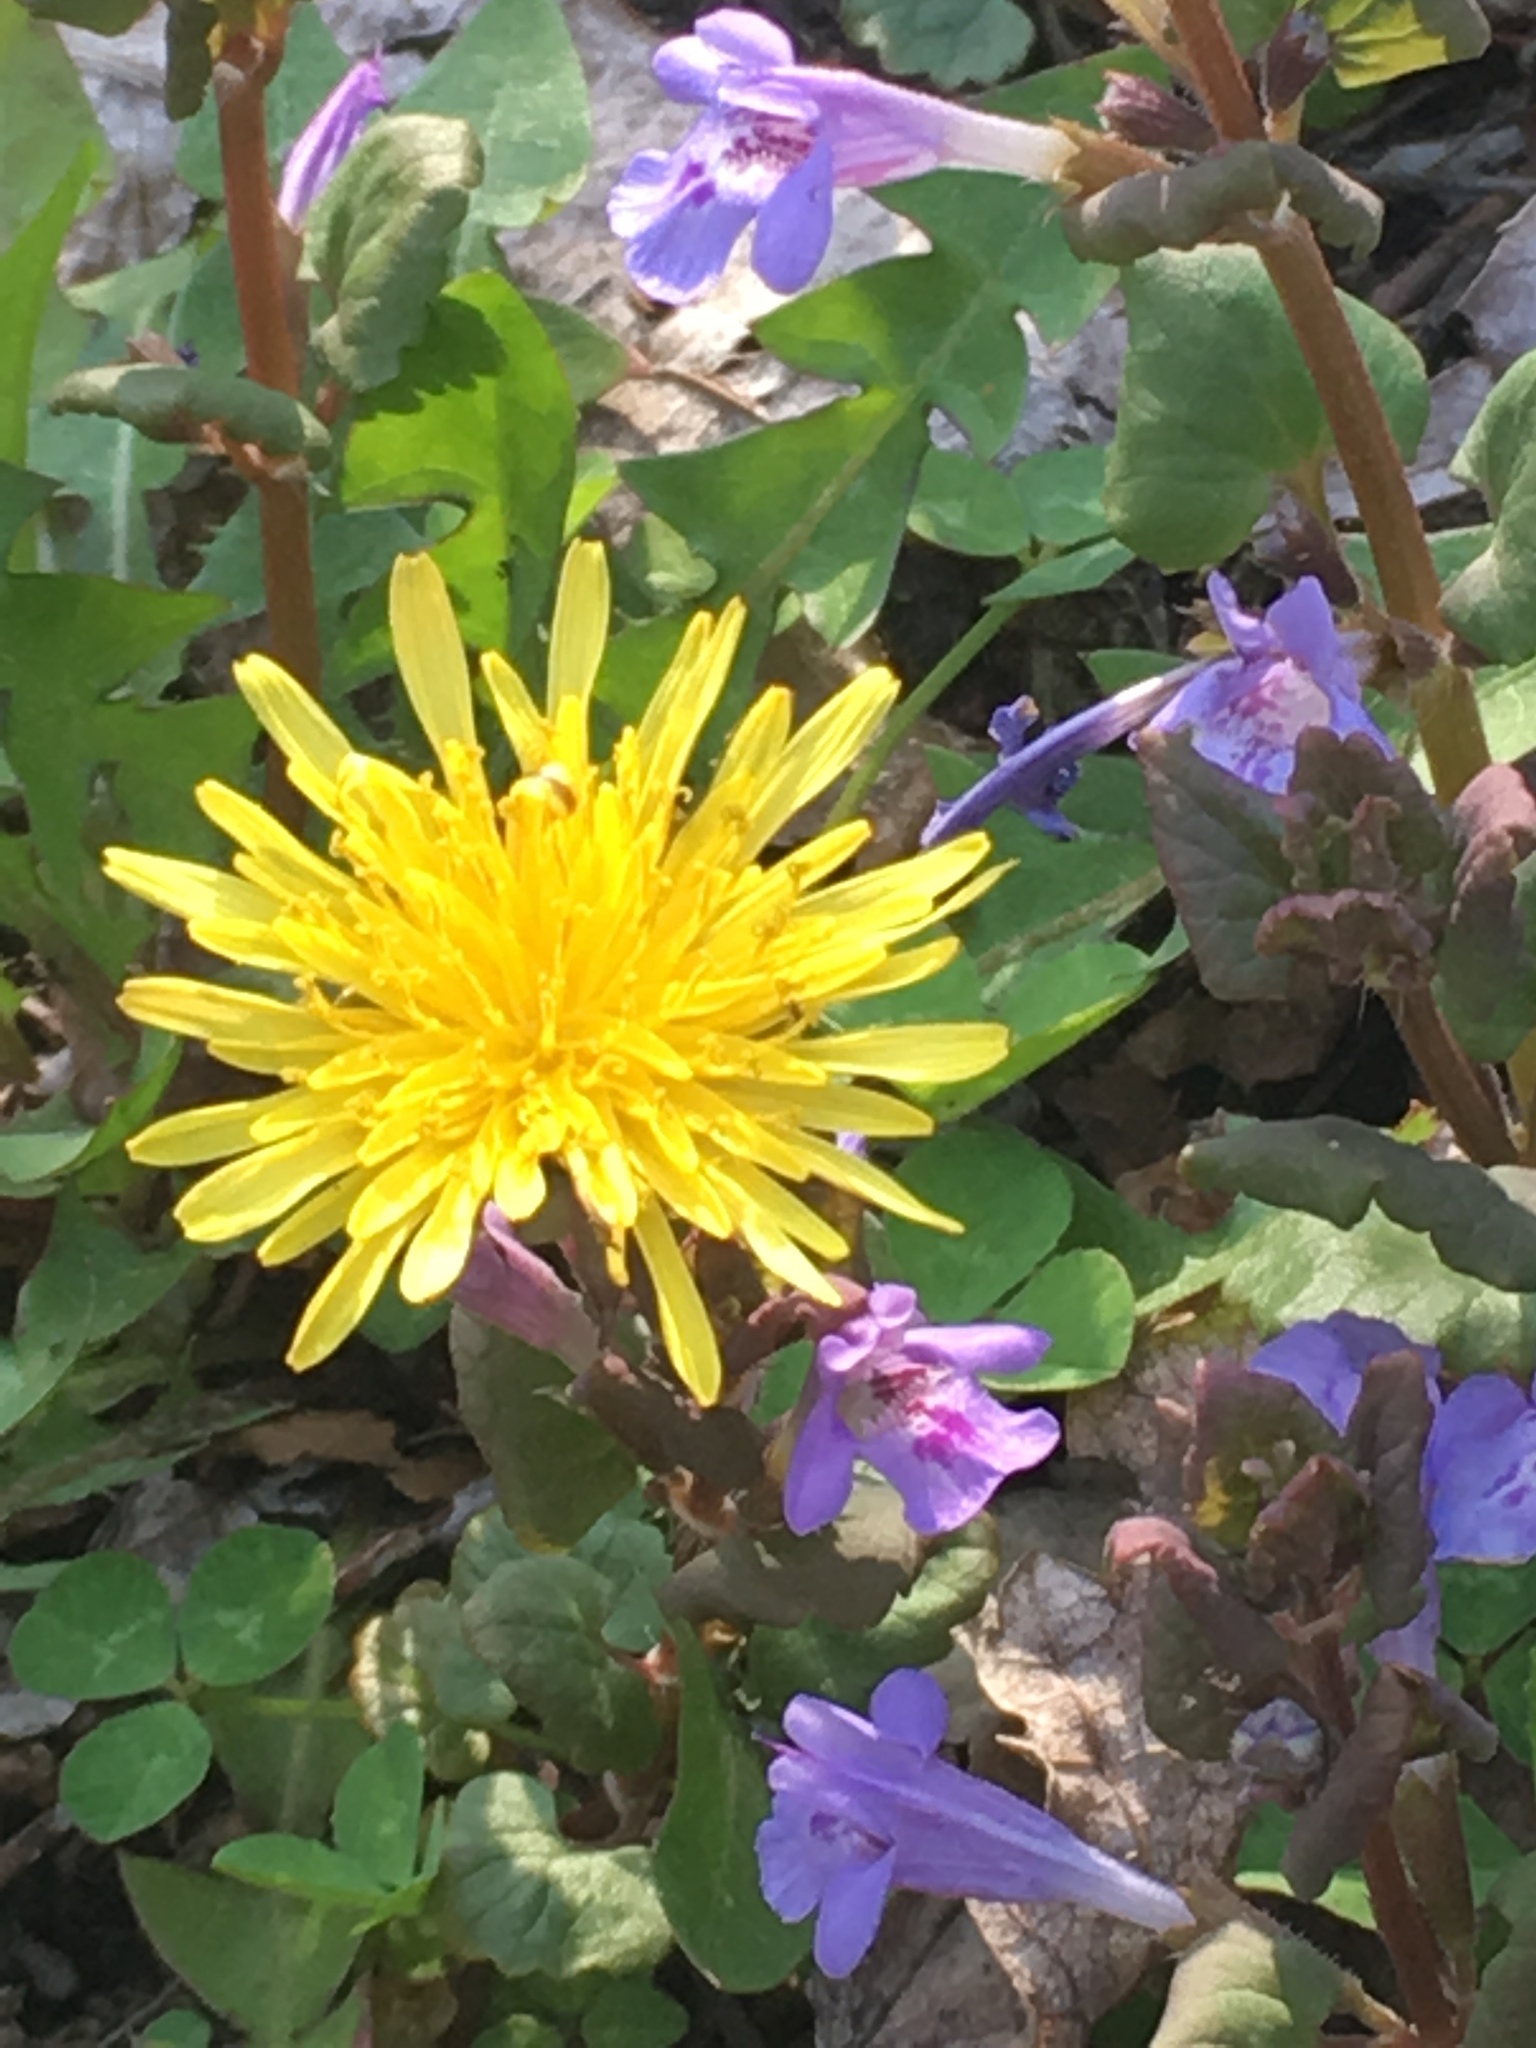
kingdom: Plantae
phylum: Tracheophyta
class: Magnoliopsida
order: Asterales
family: Asteraceae
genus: Taraxacum
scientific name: Taraxacum officinale
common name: Common dandelion
